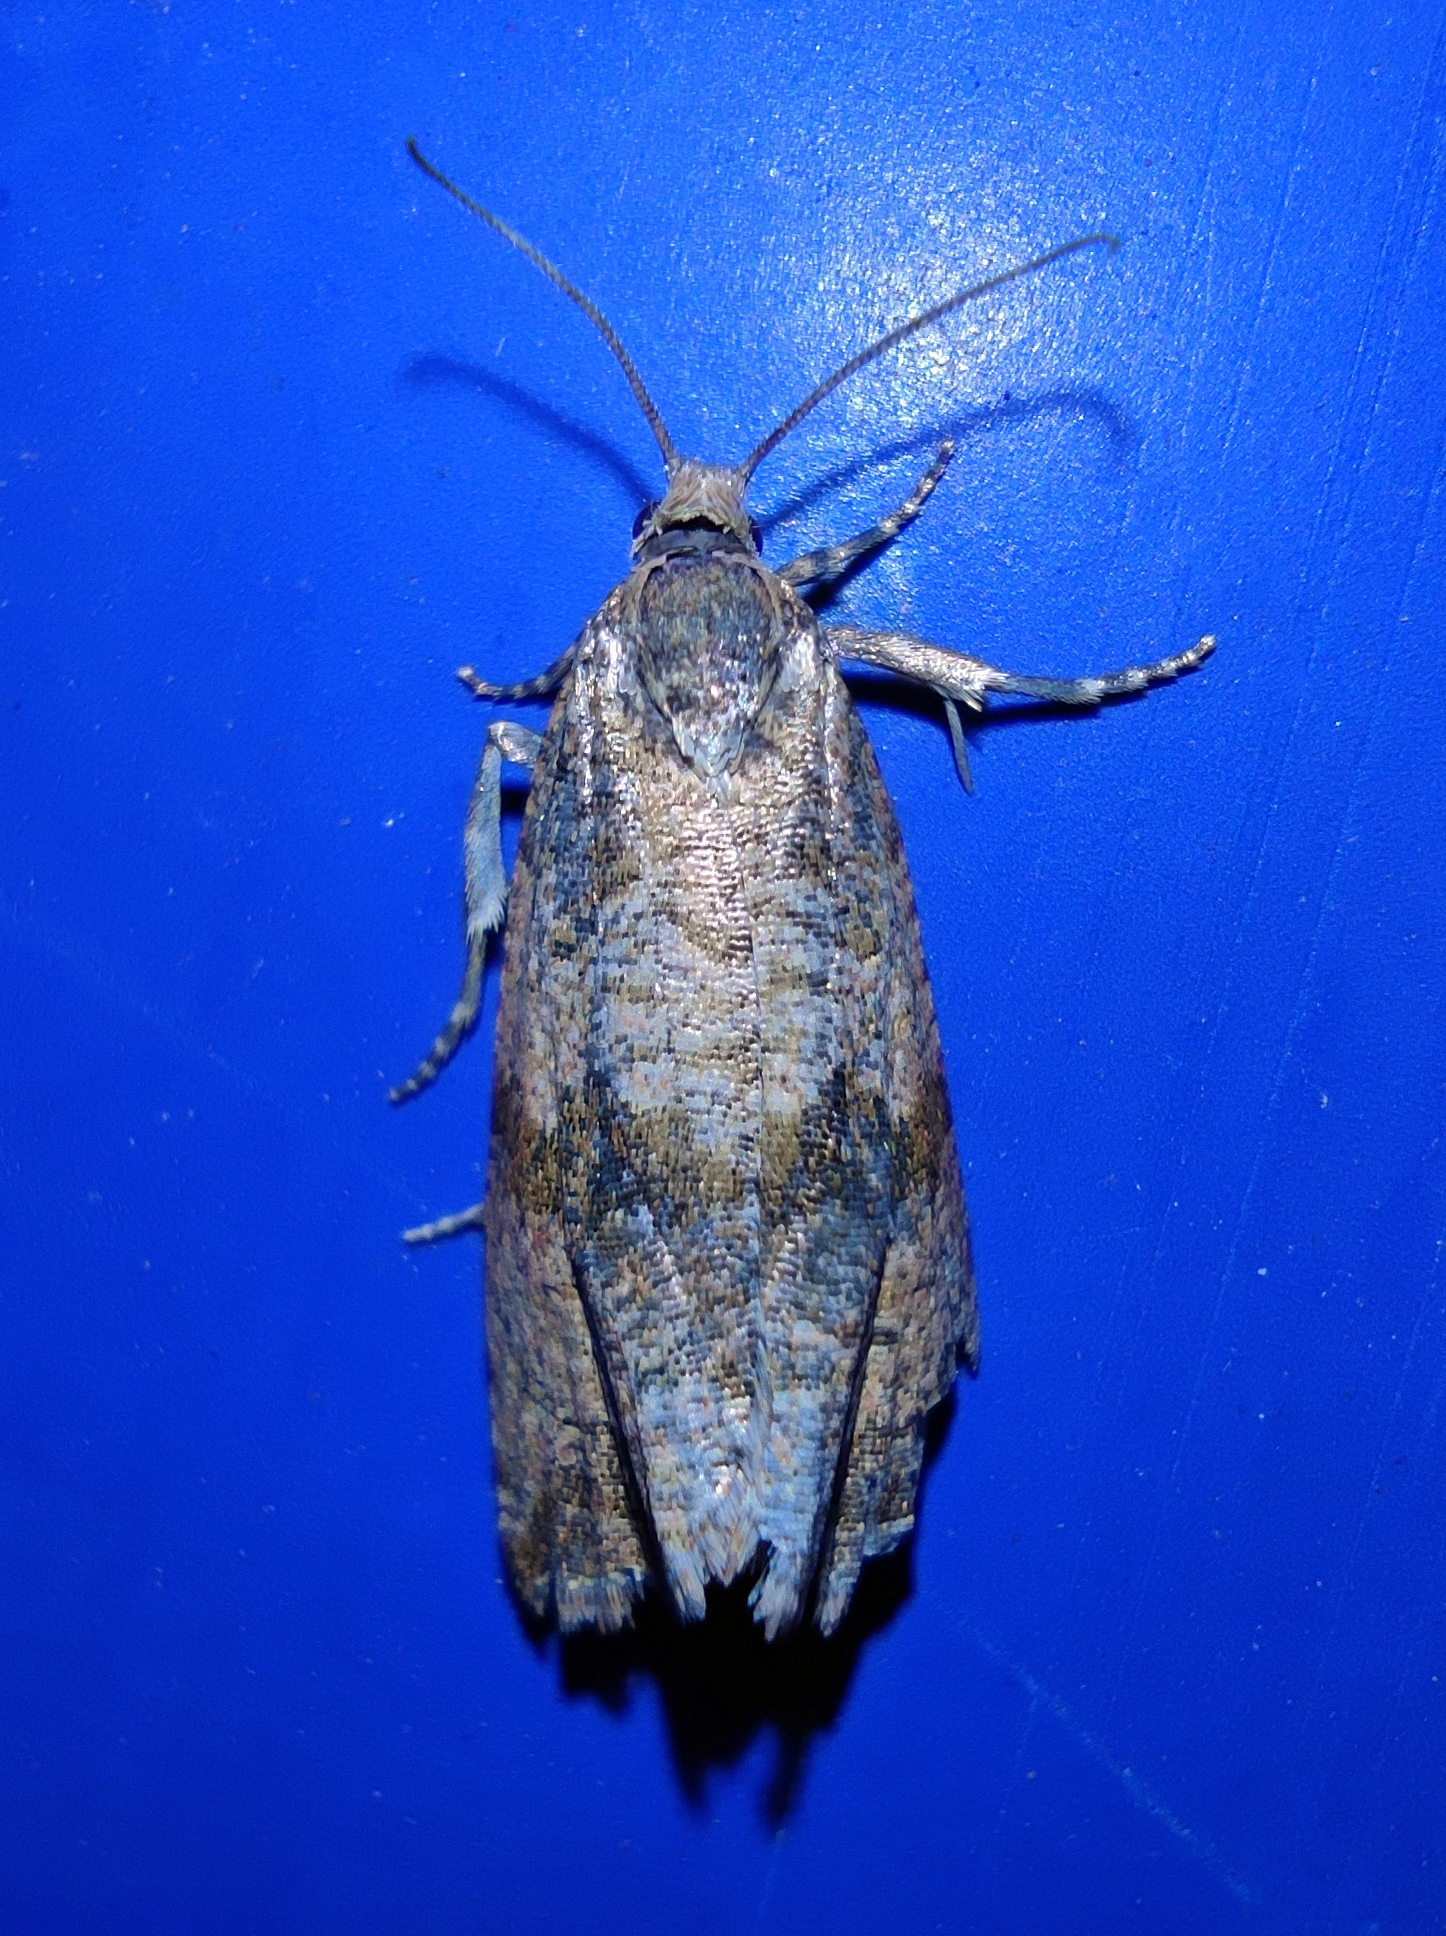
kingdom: Animalia
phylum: Arthropoda
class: Insecta
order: Lepidoptera
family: Tortricidae
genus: Celypha
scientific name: Celypha striana
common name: Barred marble
